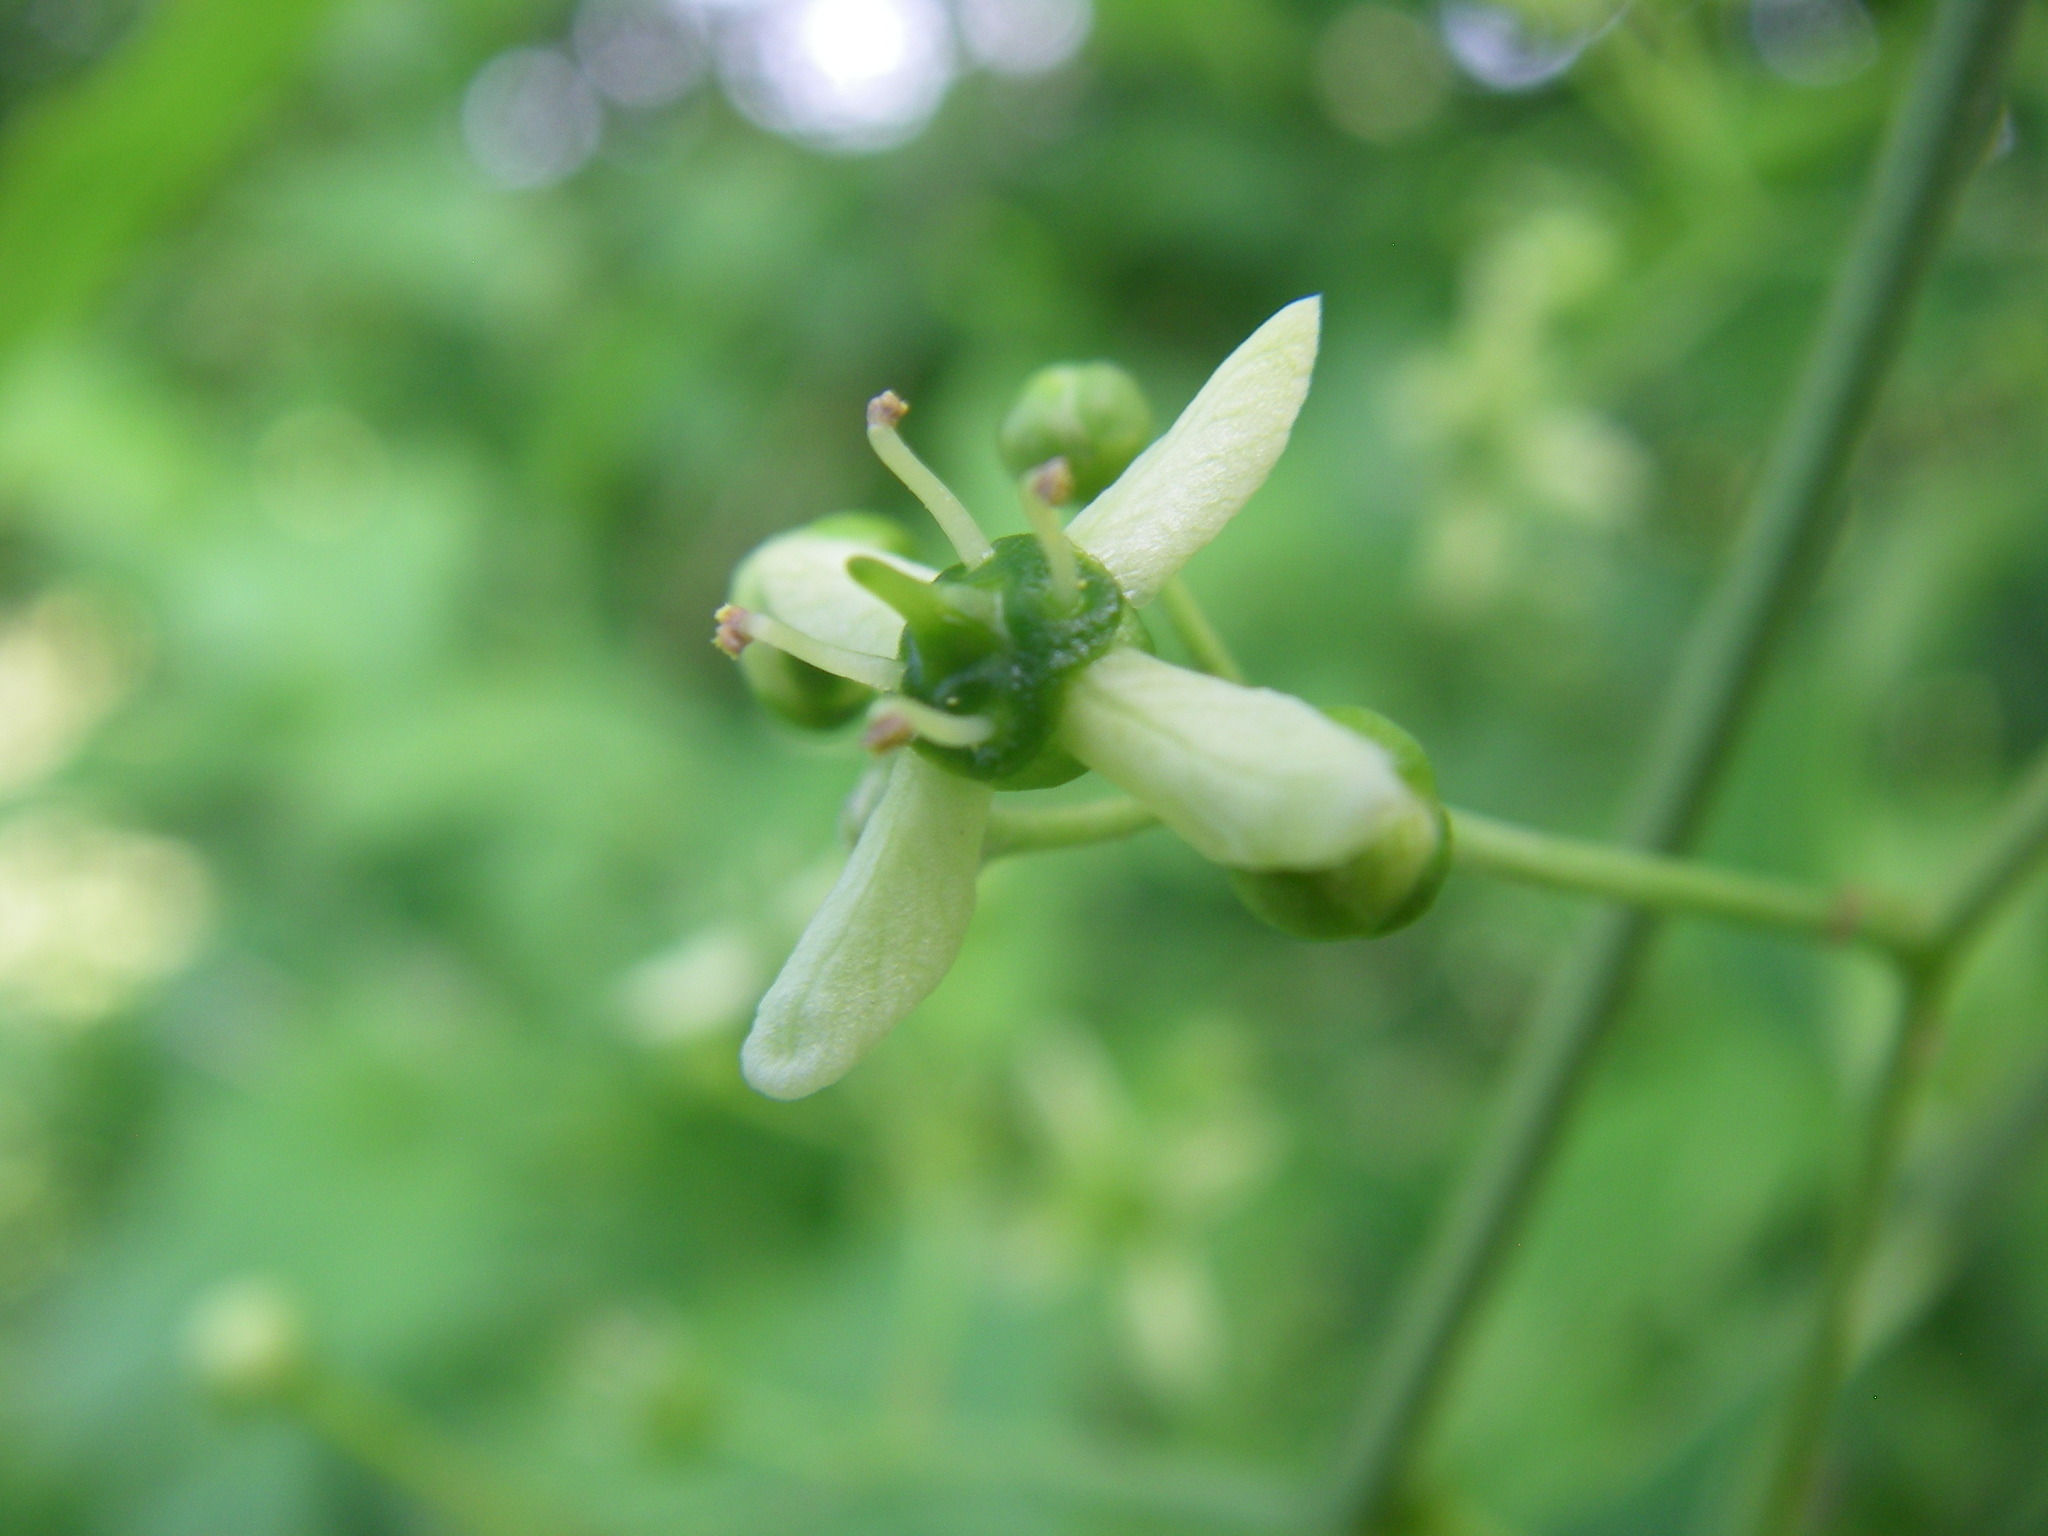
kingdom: Plantae
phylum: Tracheophyta
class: Magnoliopsida
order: Celastrales
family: Celastraceae
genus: Euonymus
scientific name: Euonymus europaeus
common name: Spindle
